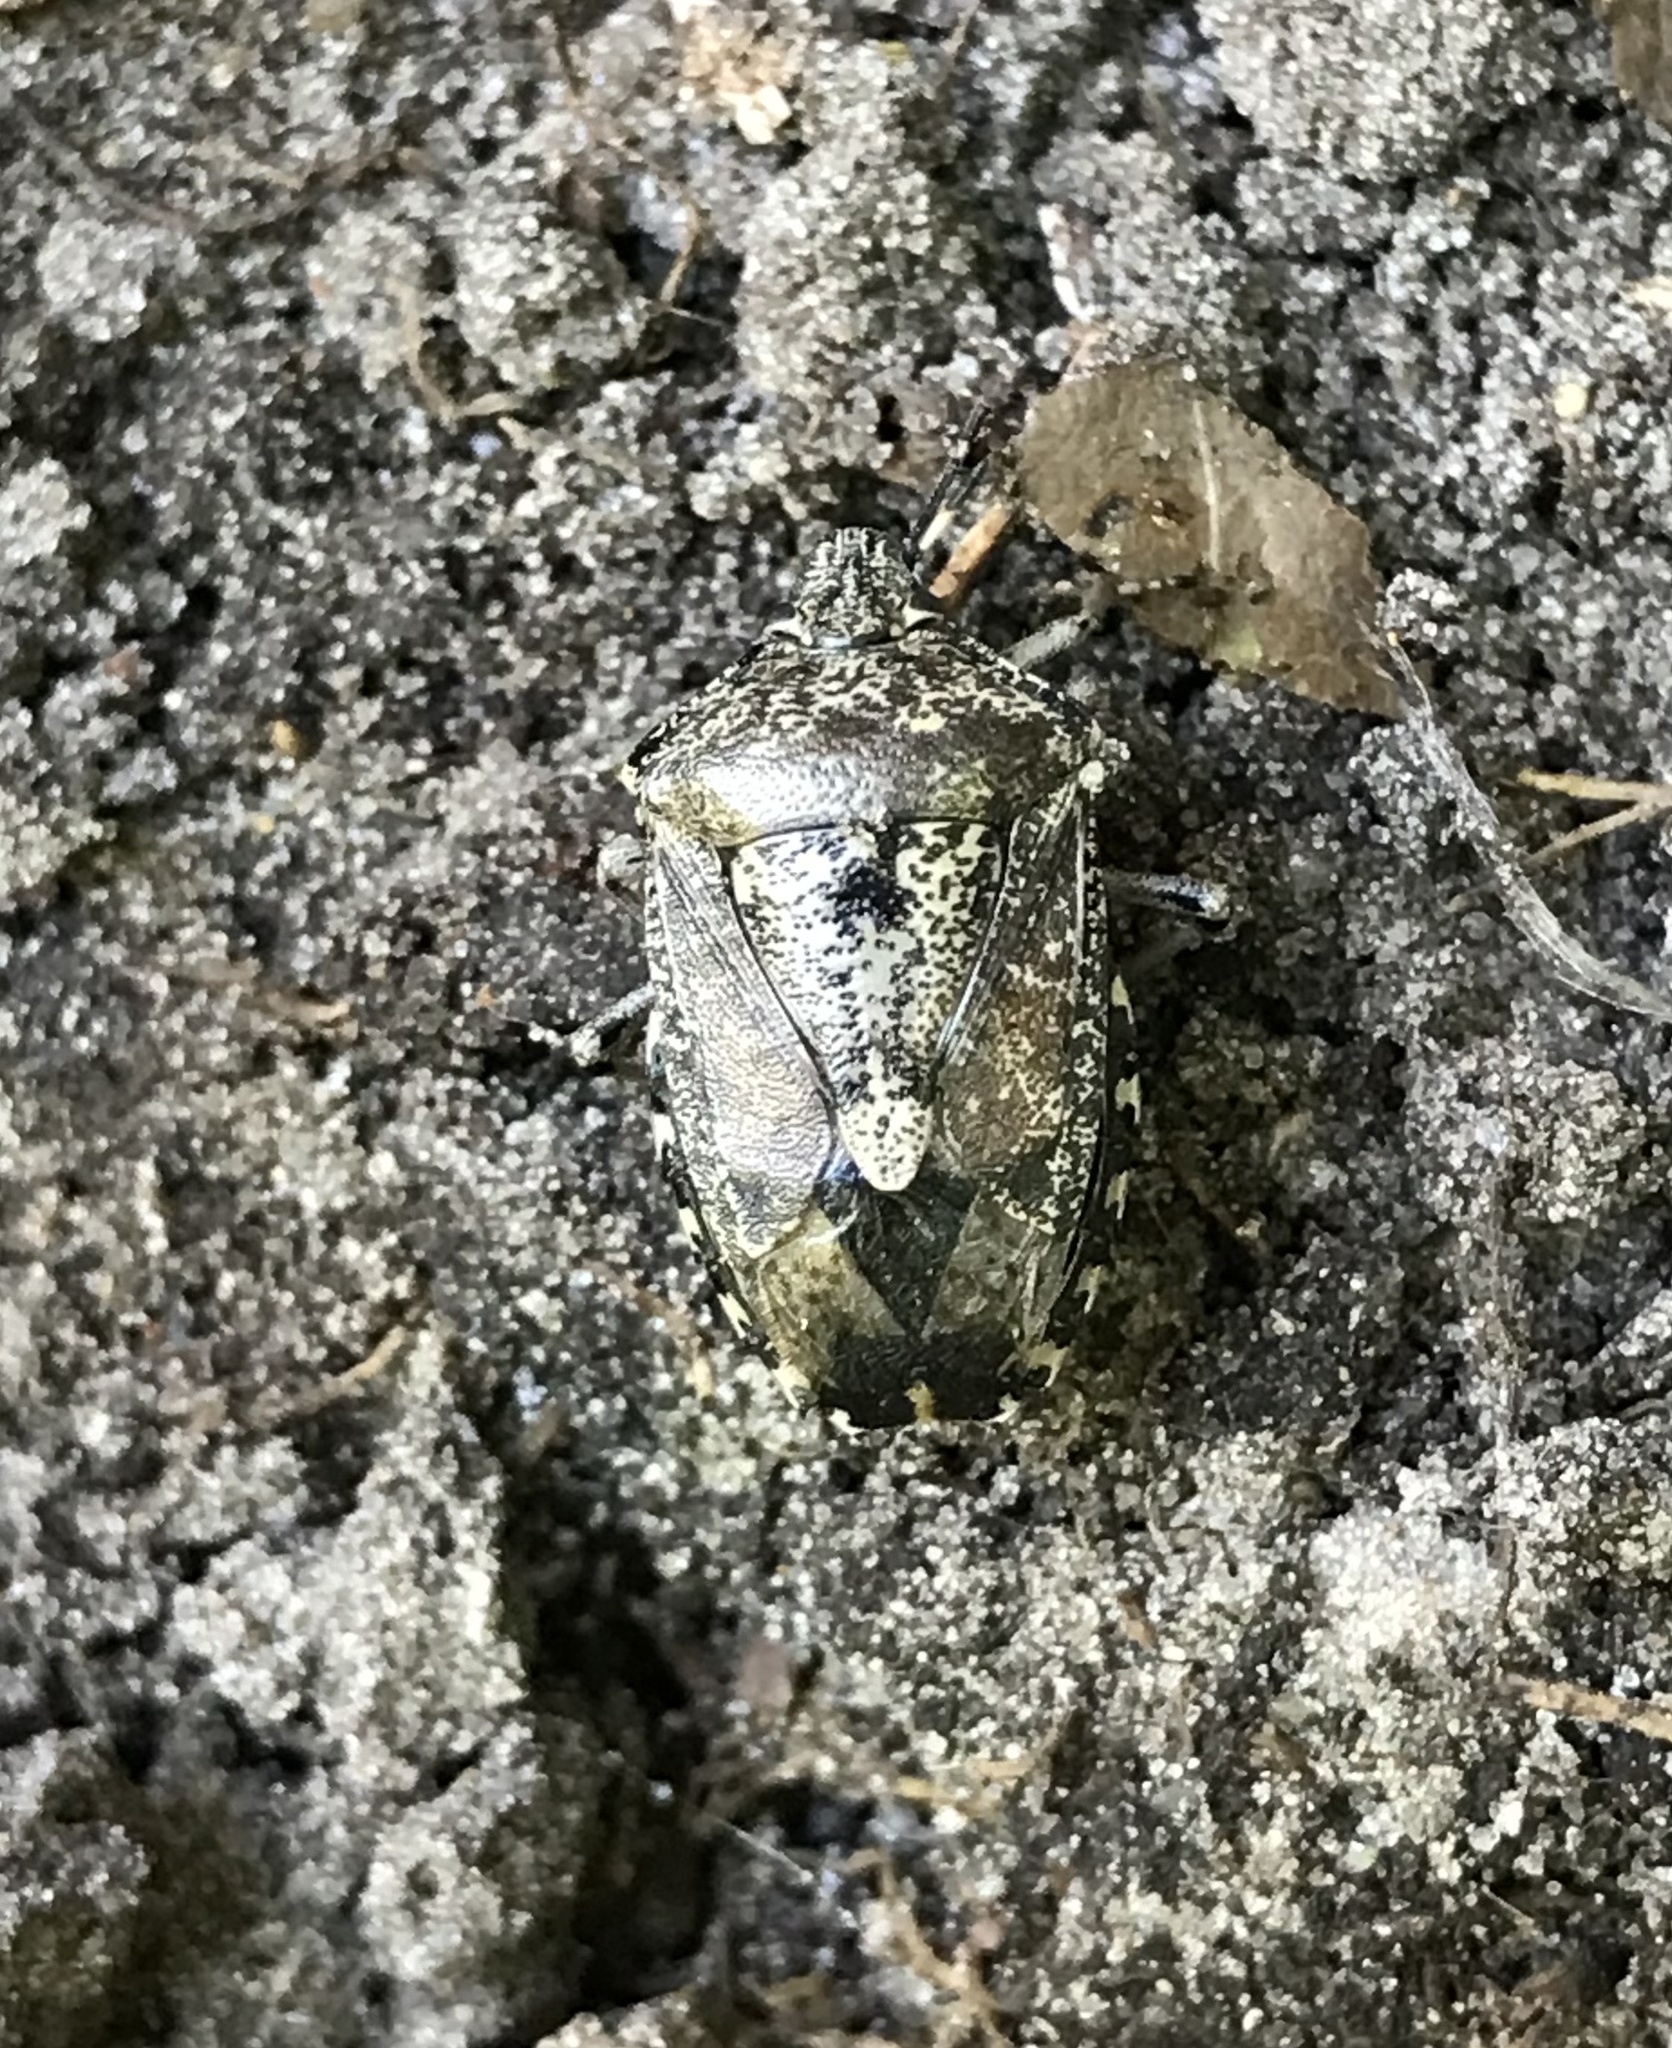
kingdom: Animalia
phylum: Arthropoda
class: Insecta
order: Hemiptera
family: Pentatomidae
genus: Rhaphigaster
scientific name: Rhaphigaster nebulosa
